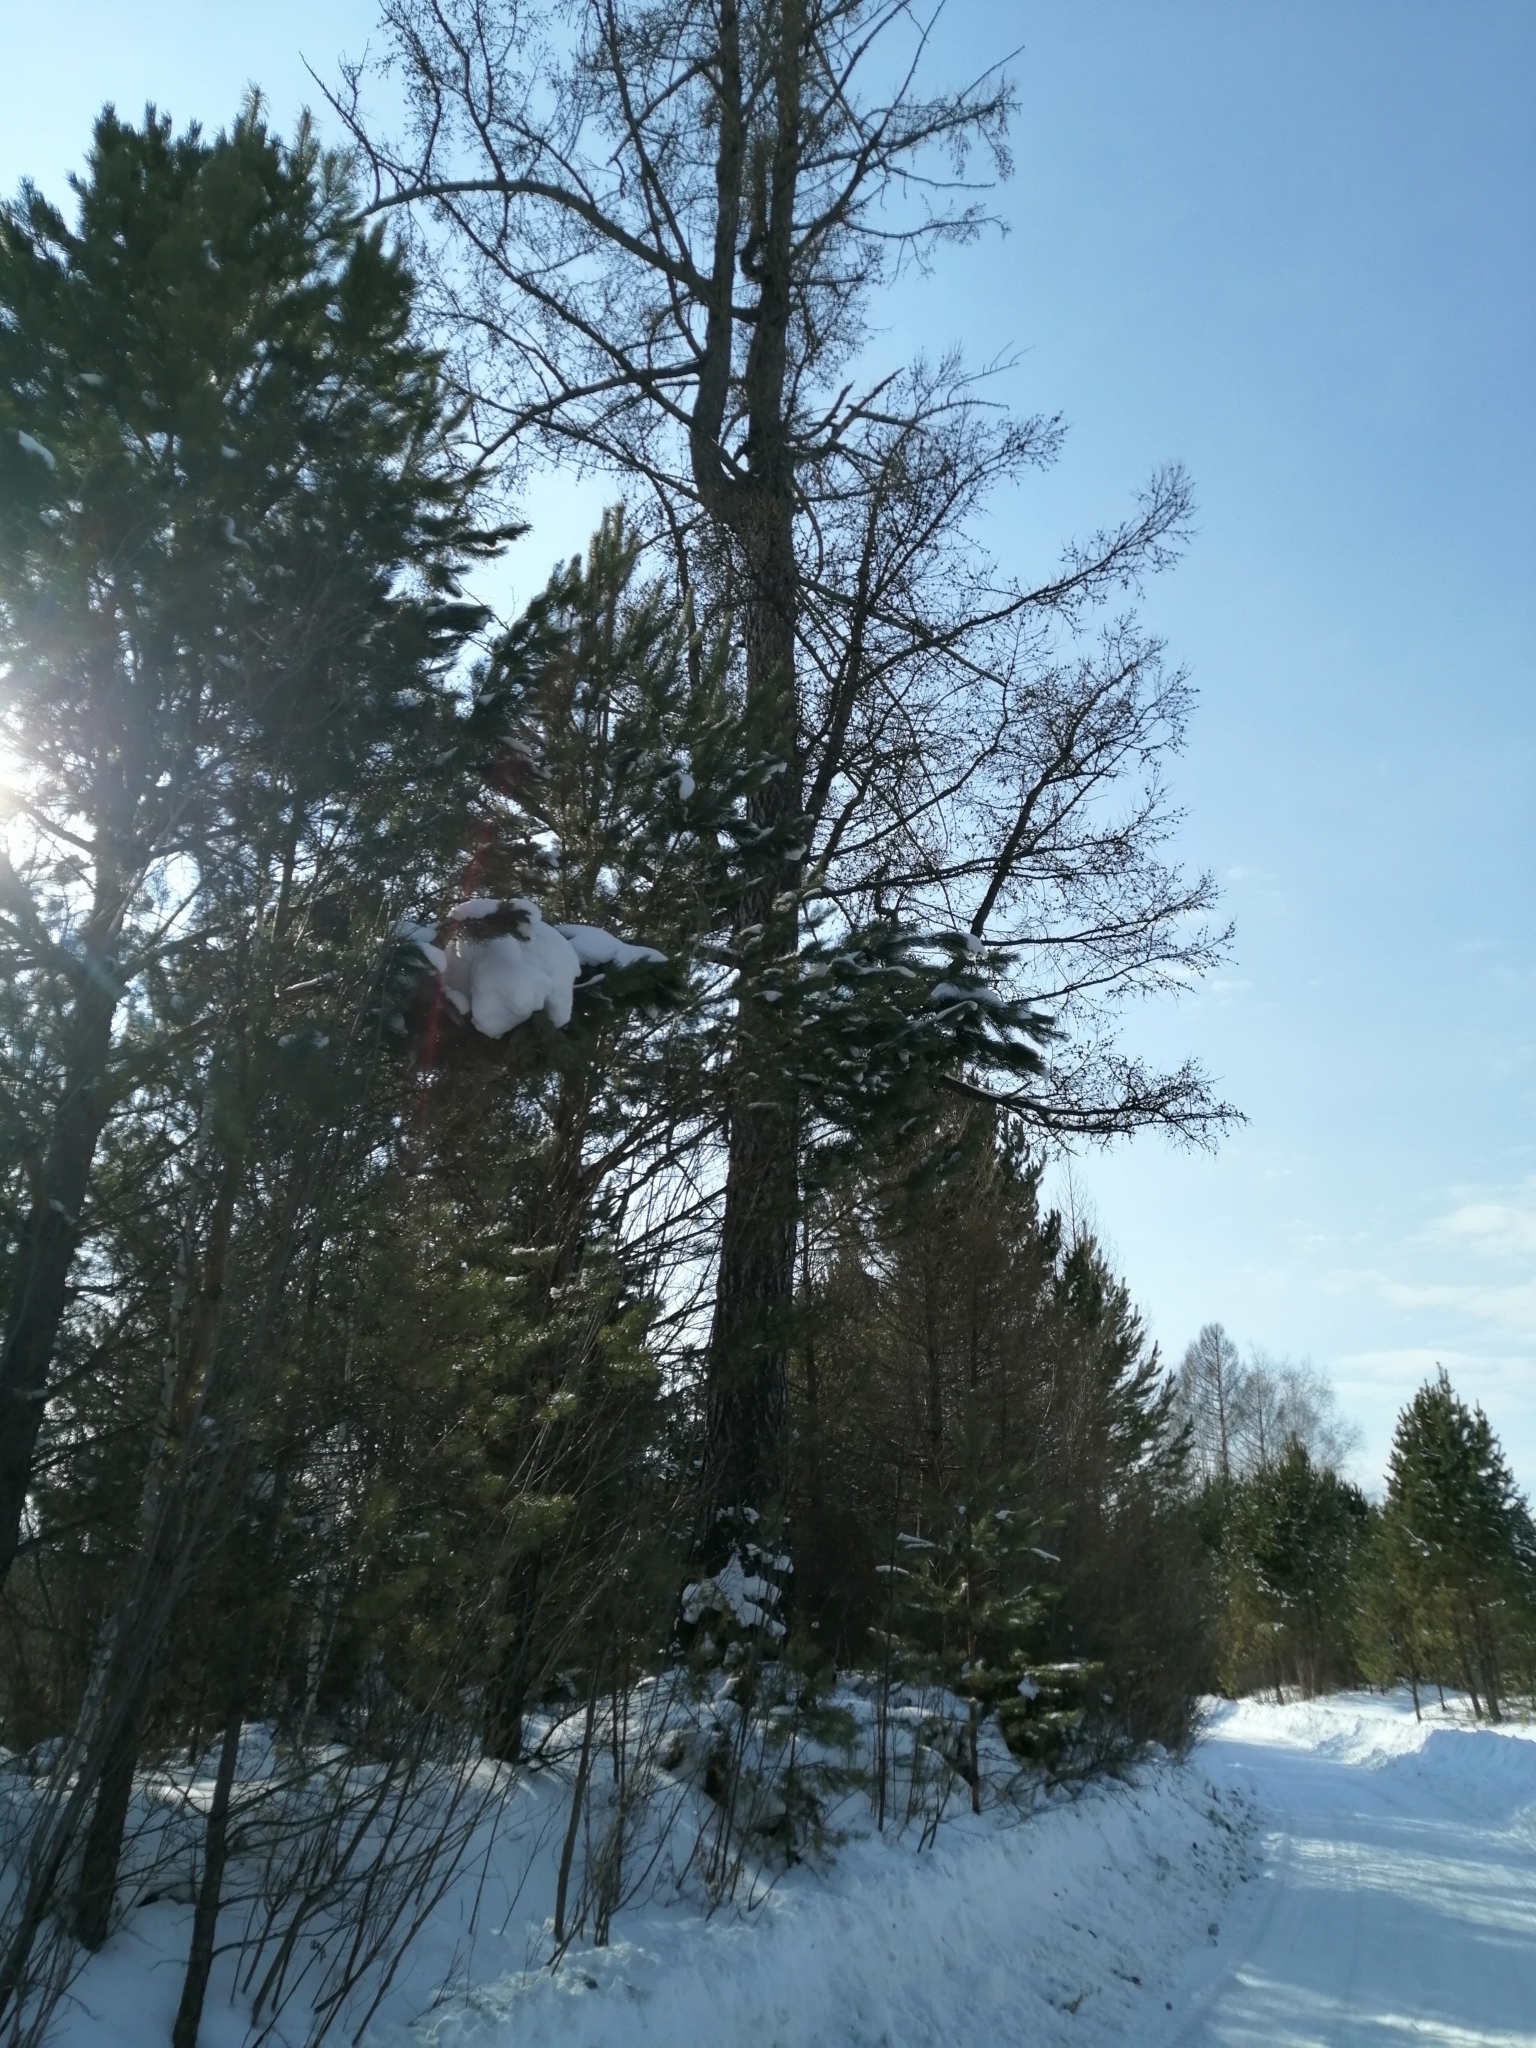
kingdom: Plantae
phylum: Tracheophyta
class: Pinopsida
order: Pinales
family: Pinaceae
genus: Larix
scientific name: Larix sibirica
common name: Siberian larch
